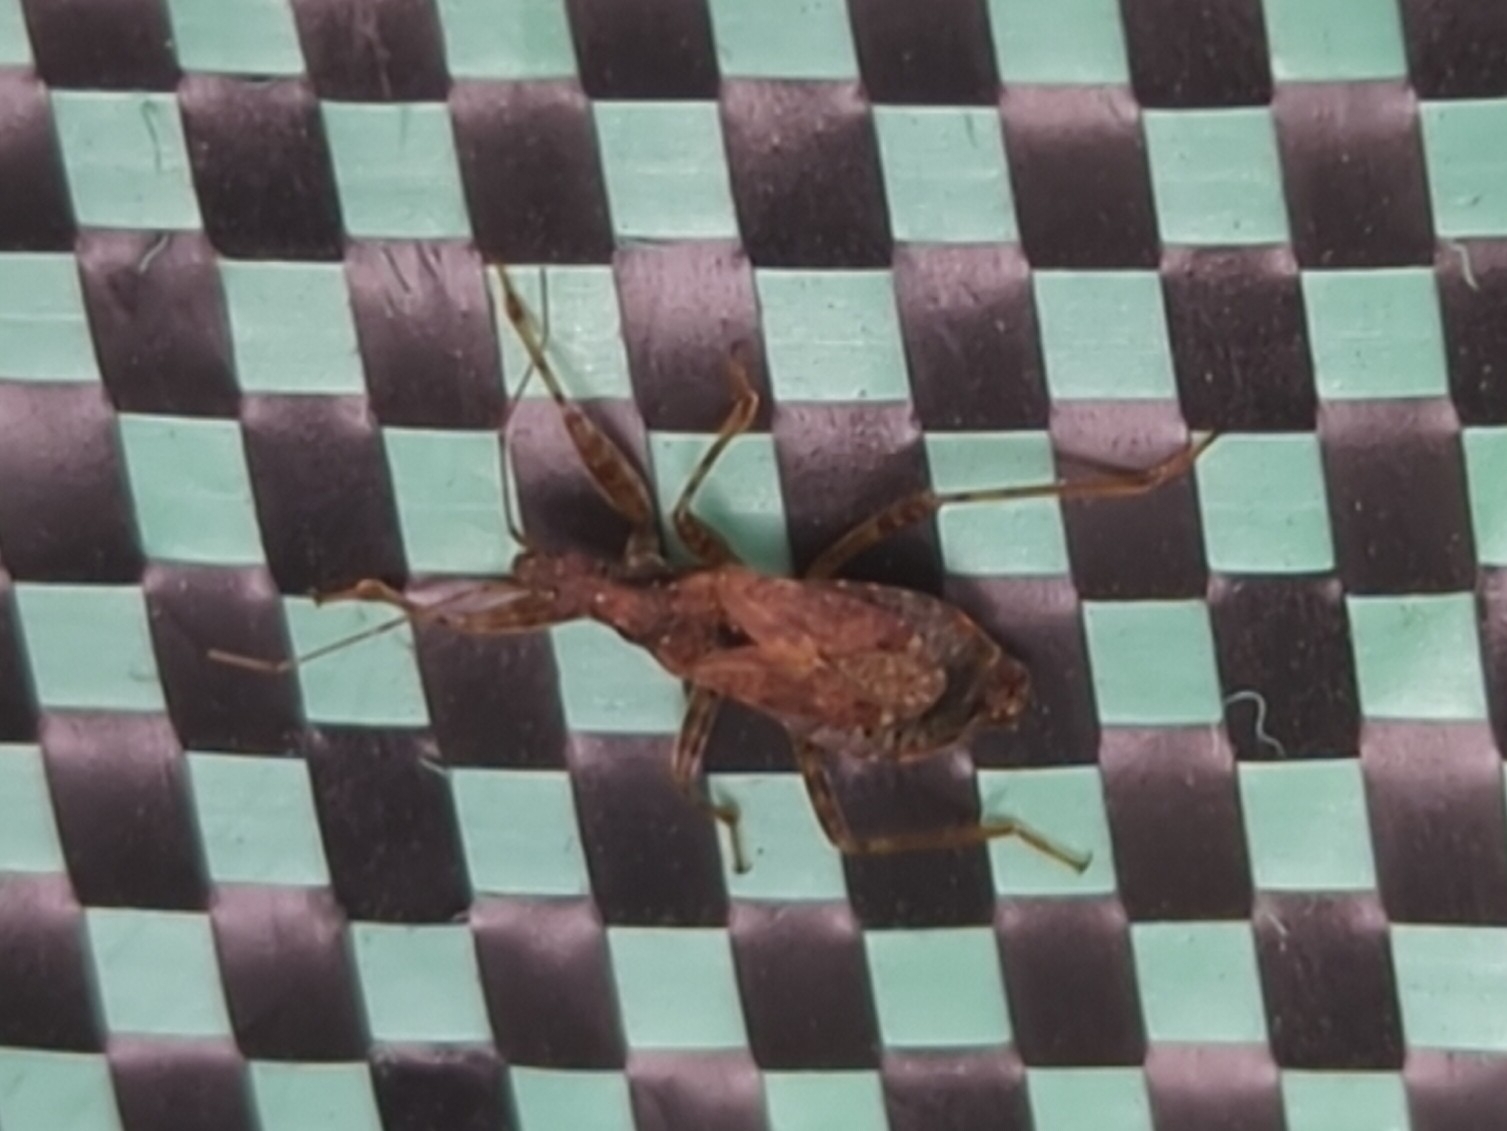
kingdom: Animalia
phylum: Arthropoda
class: Insecta
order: Hemiptera
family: Nabidae
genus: Himacerus
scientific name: Himacerus mirmicoides
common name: Ant damsel bug
